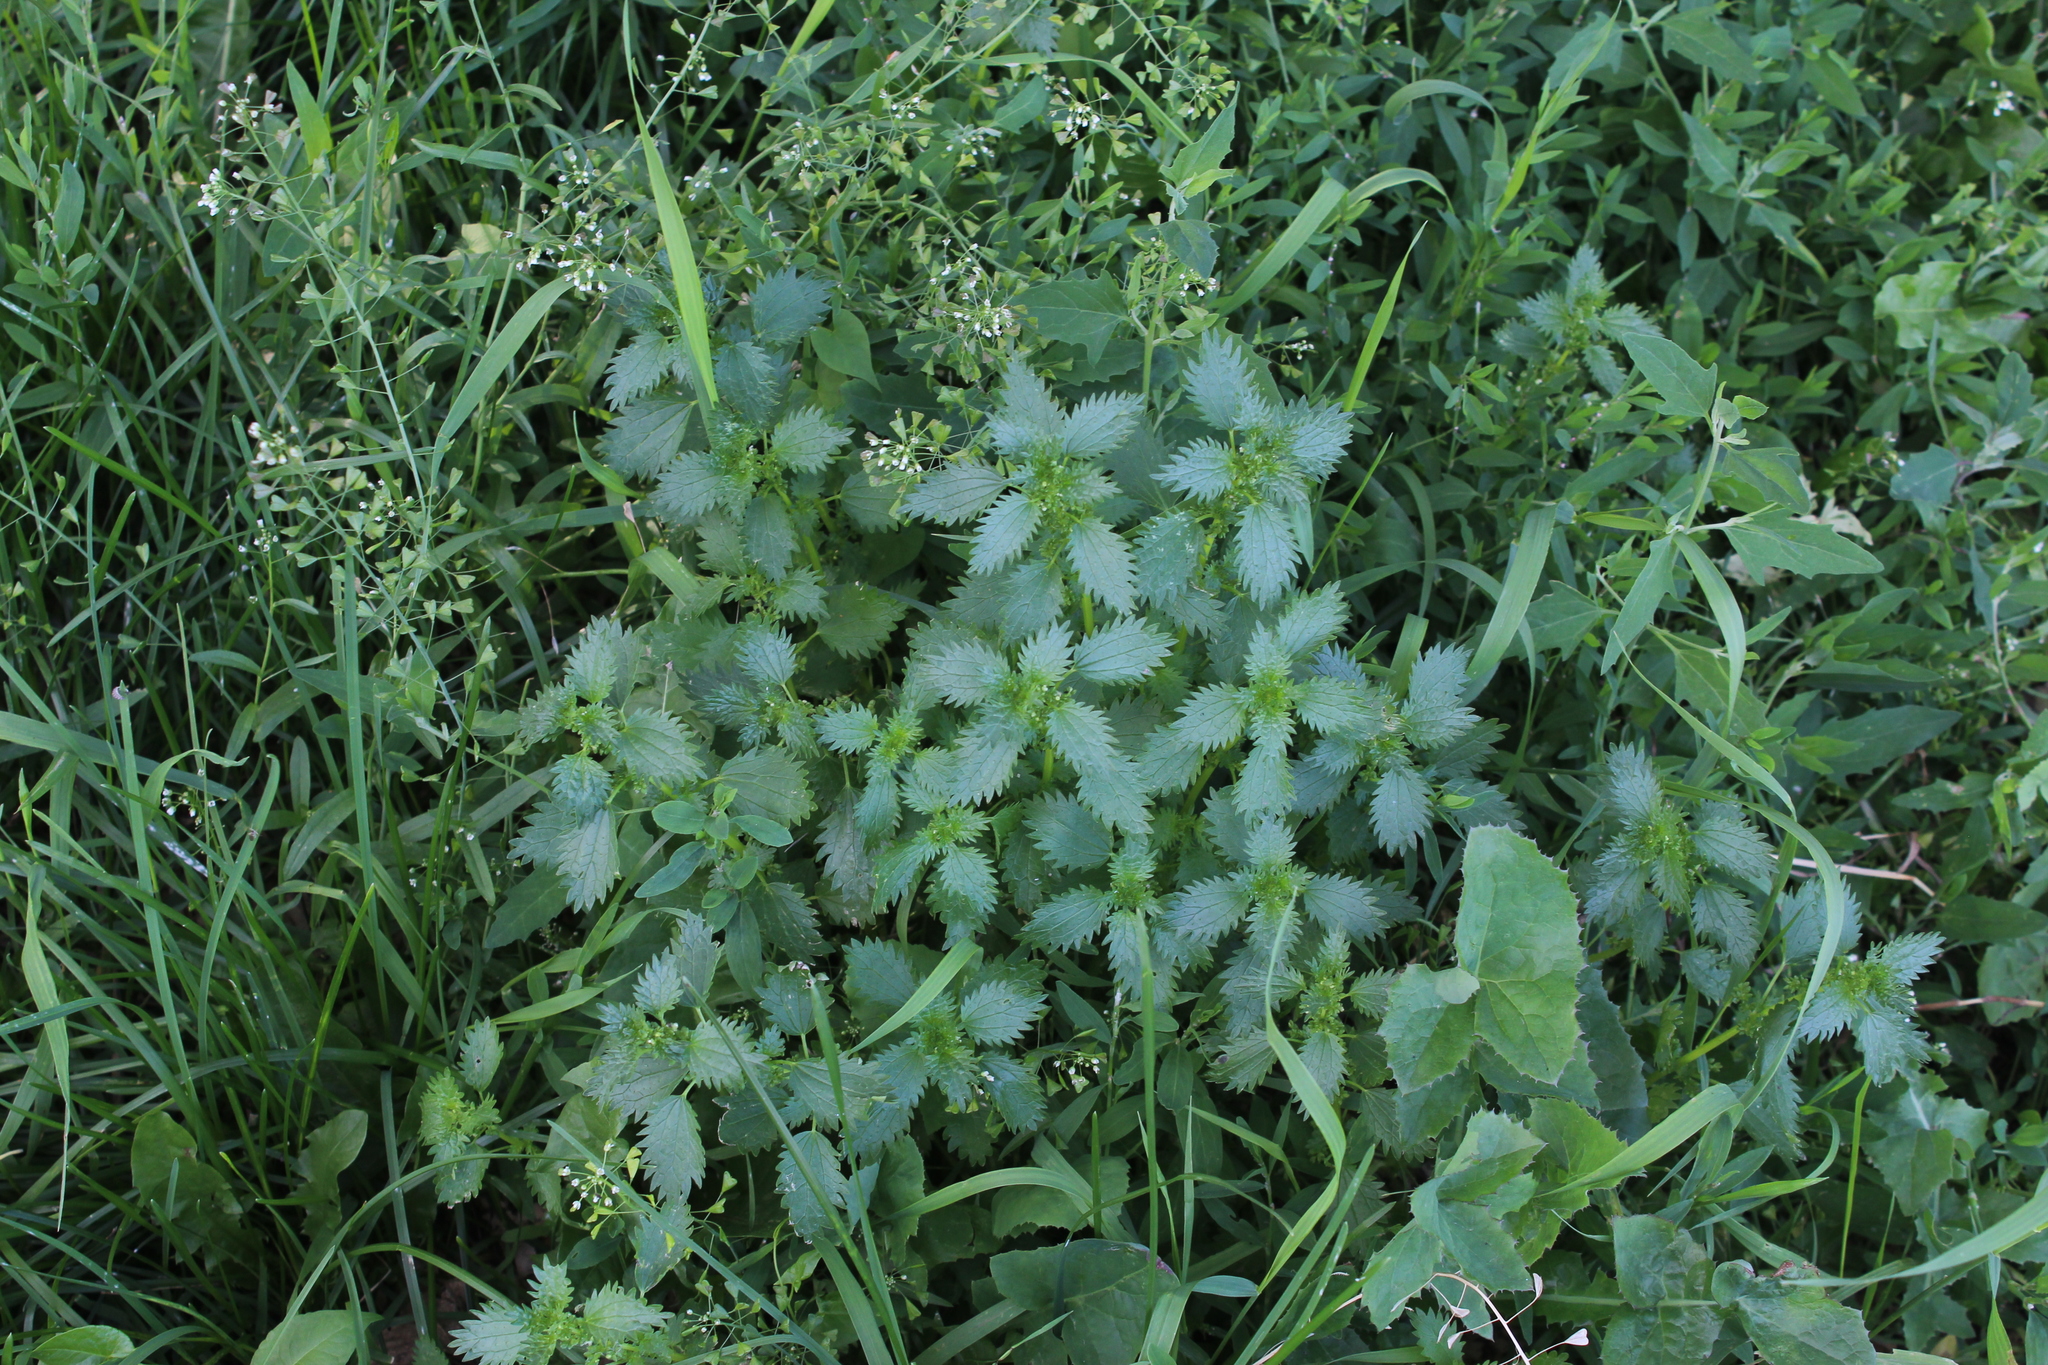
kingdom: Plantae
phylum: Tracheophyta
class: Magnoliopsida
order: Rosales
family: Urticaceae
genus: Urtica
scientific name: Urtica urens
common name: Dwarf nettle
